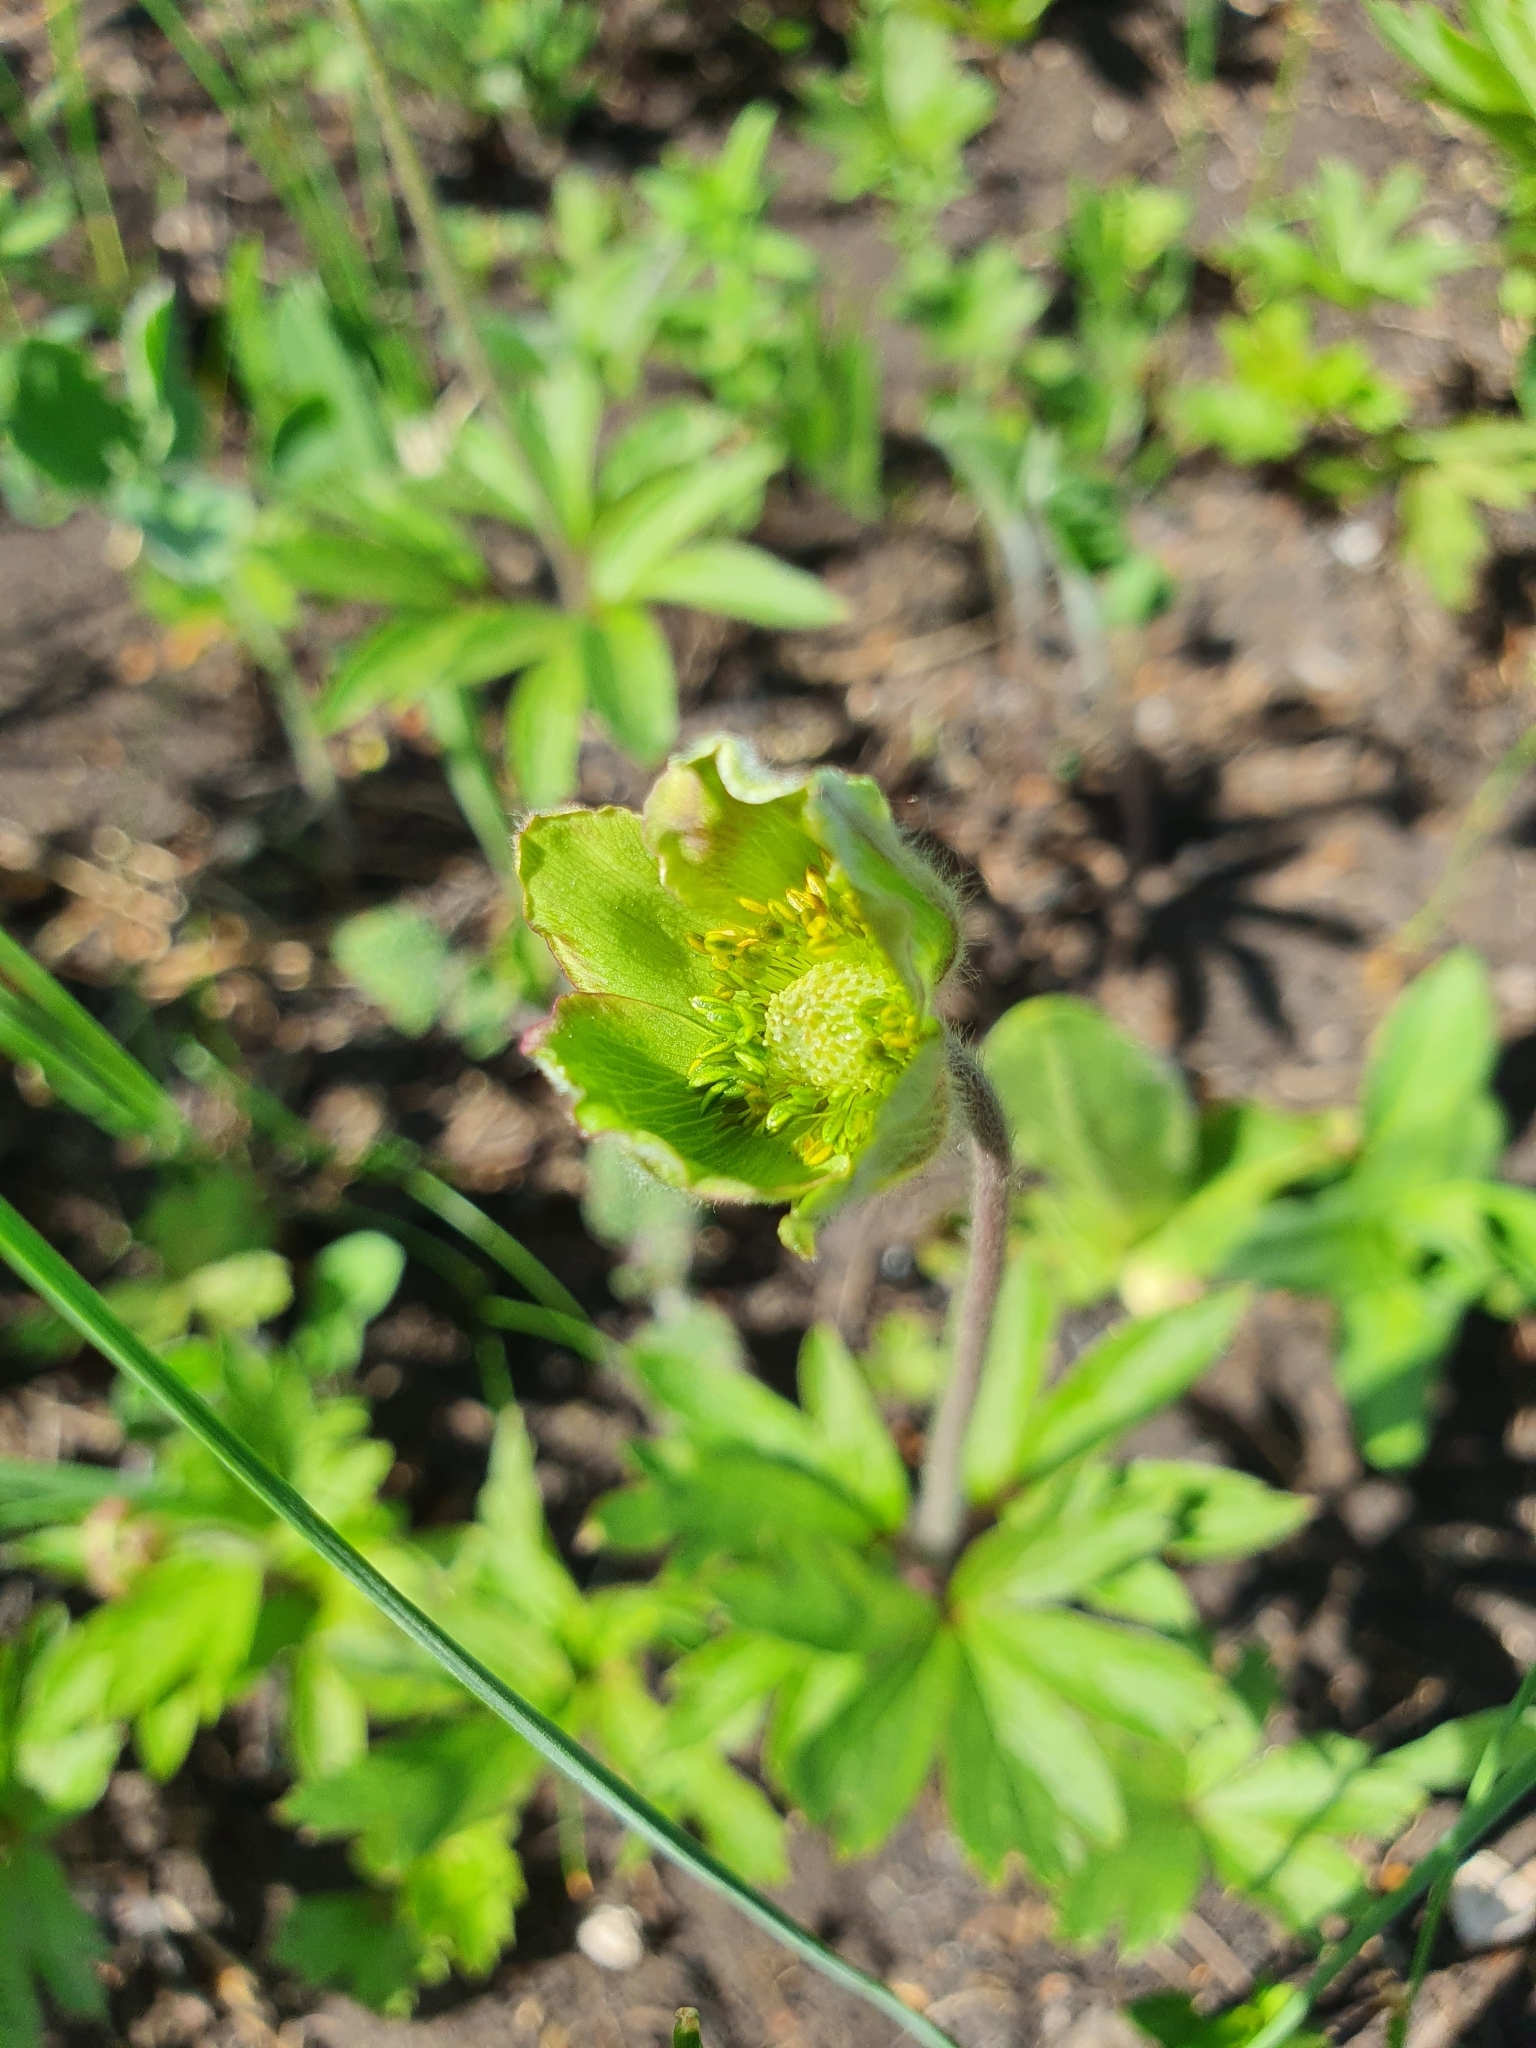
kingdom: Plantae
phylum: Tracheophyta
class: Magnoliopsida
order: Ranunculales
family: Ranunculaceae
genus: Anemone
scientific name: Anemone sylvestris
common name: Snowdrop anemone
